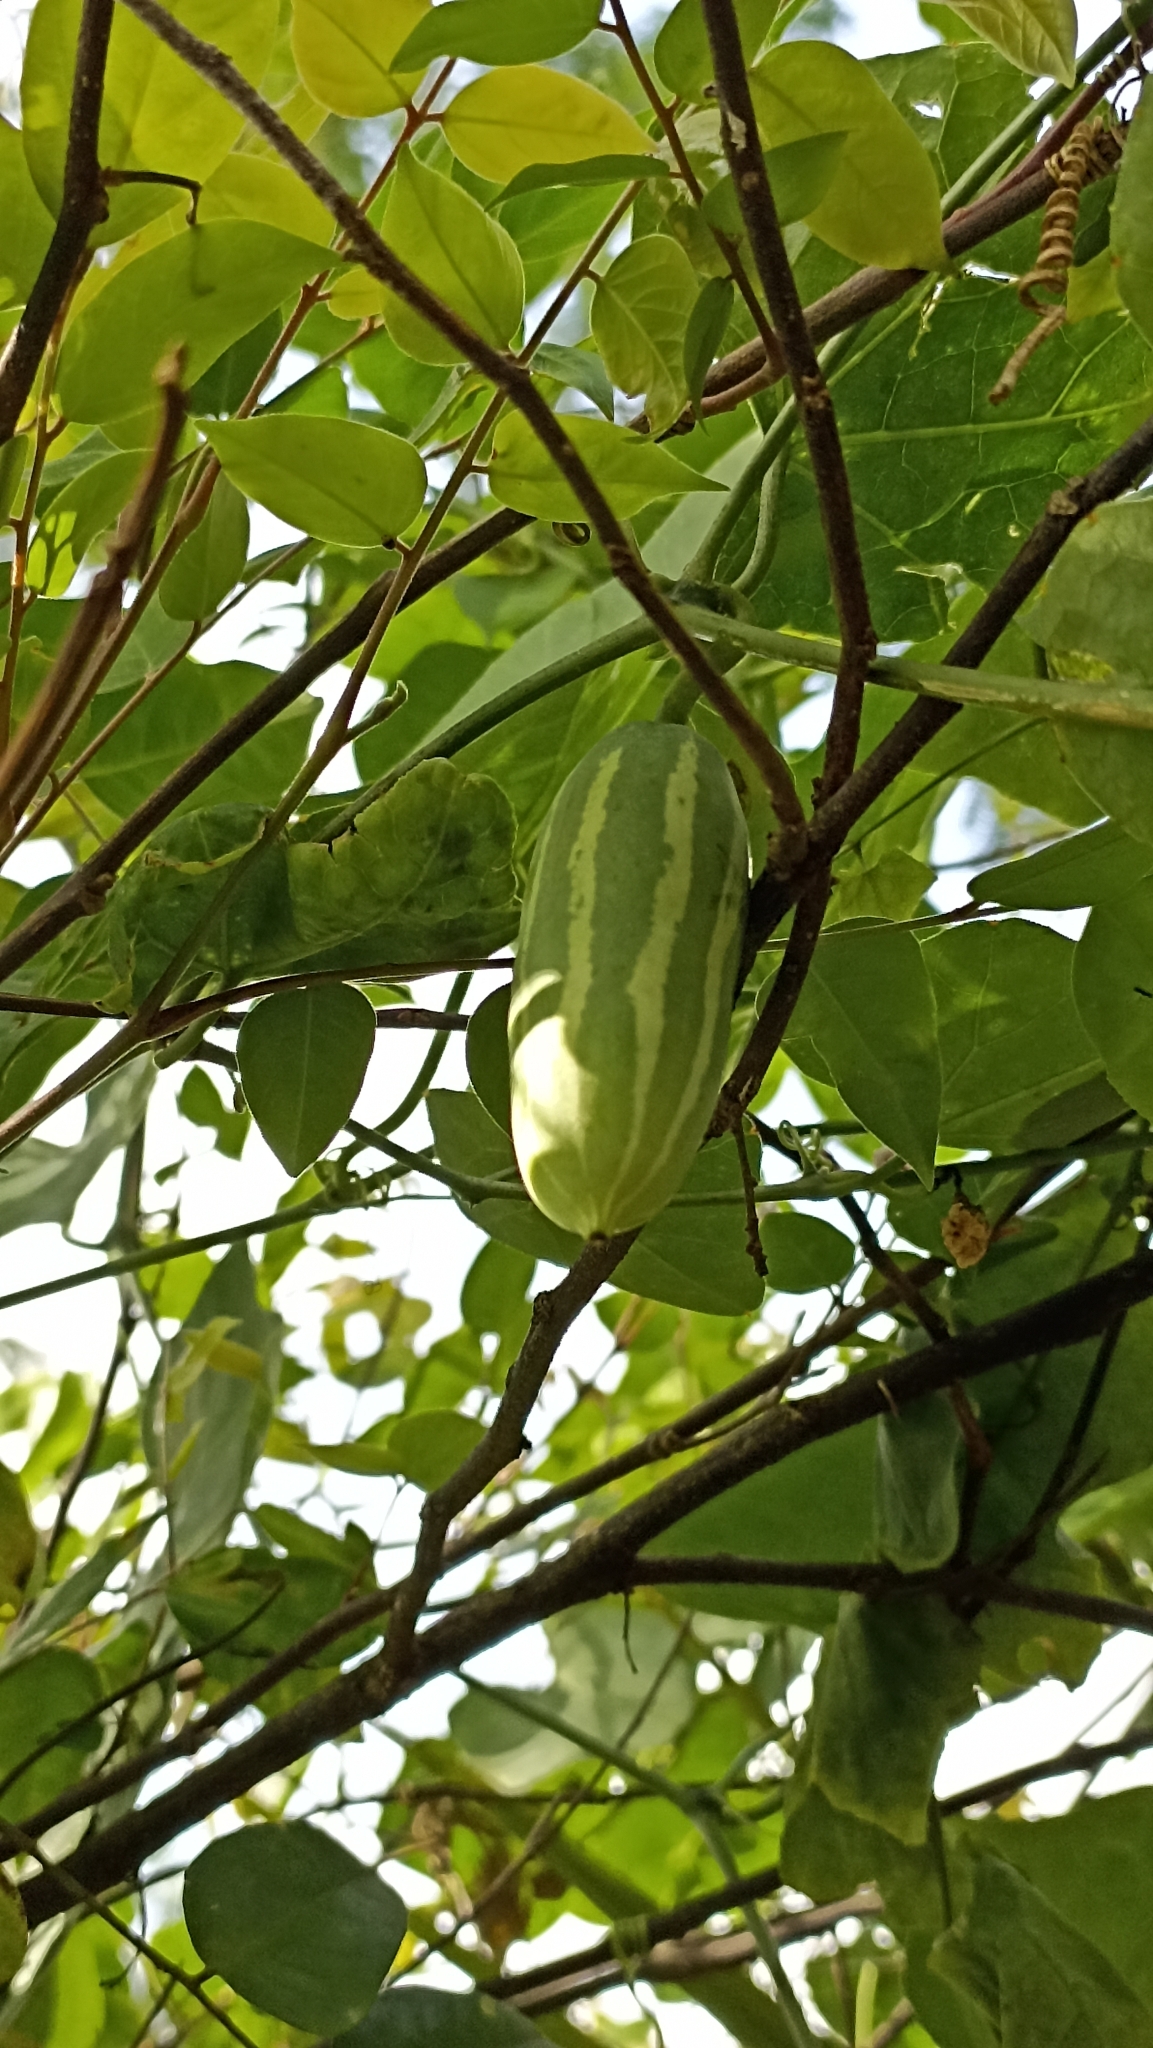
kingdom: Plantae
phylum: Tracheophyta
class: Magnoliopsida
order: Cucurbitales
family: Cucurbitaceae
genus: Trichosanthes
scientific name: Trichosanthes cucumeroides
